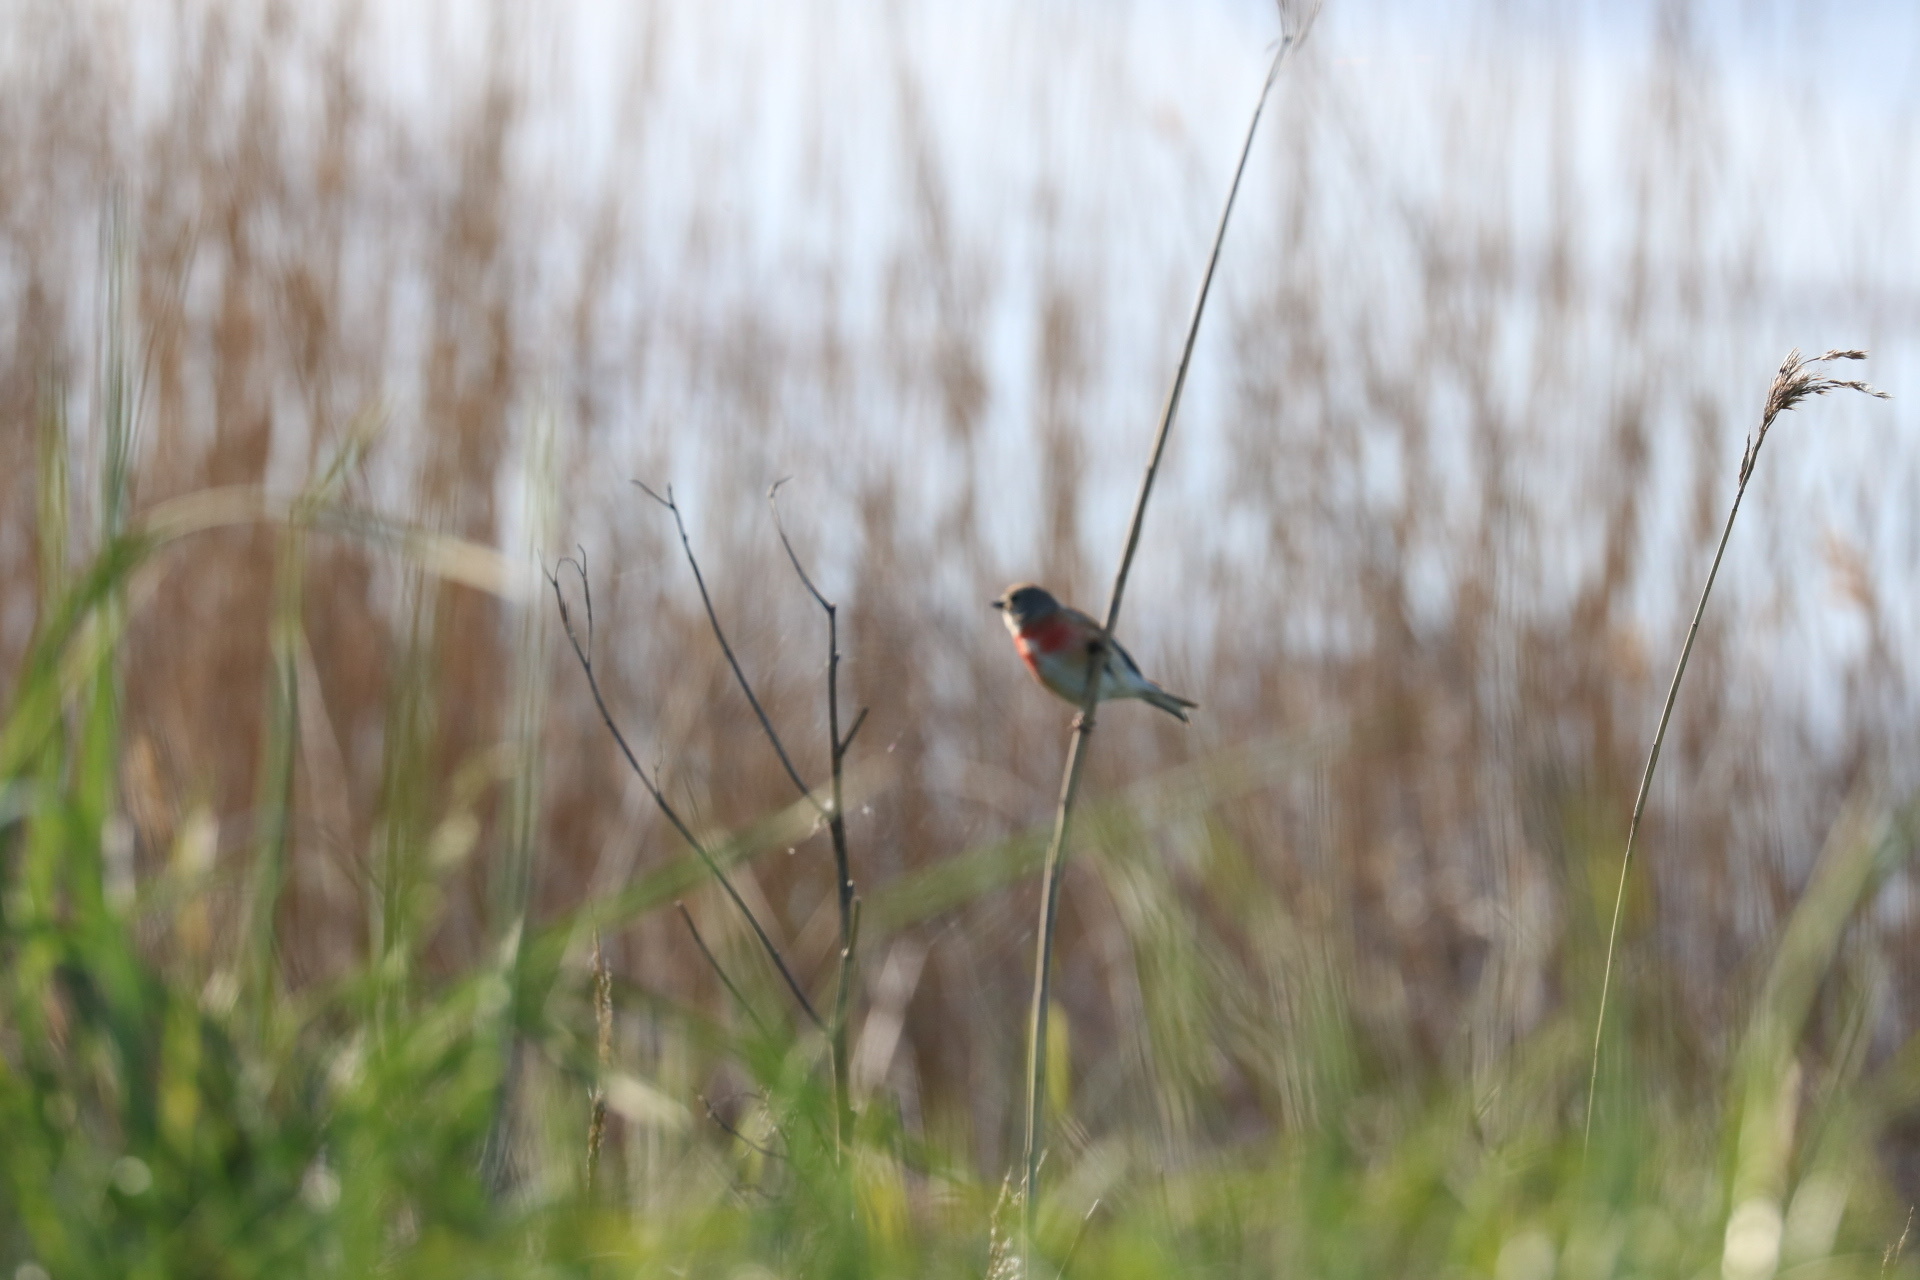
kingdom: Animalia
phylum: Chordata
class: Aves
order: Passeriformes
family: Fringillidae
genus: Linaria
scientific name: Linaria cannabina
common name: Common linnet
